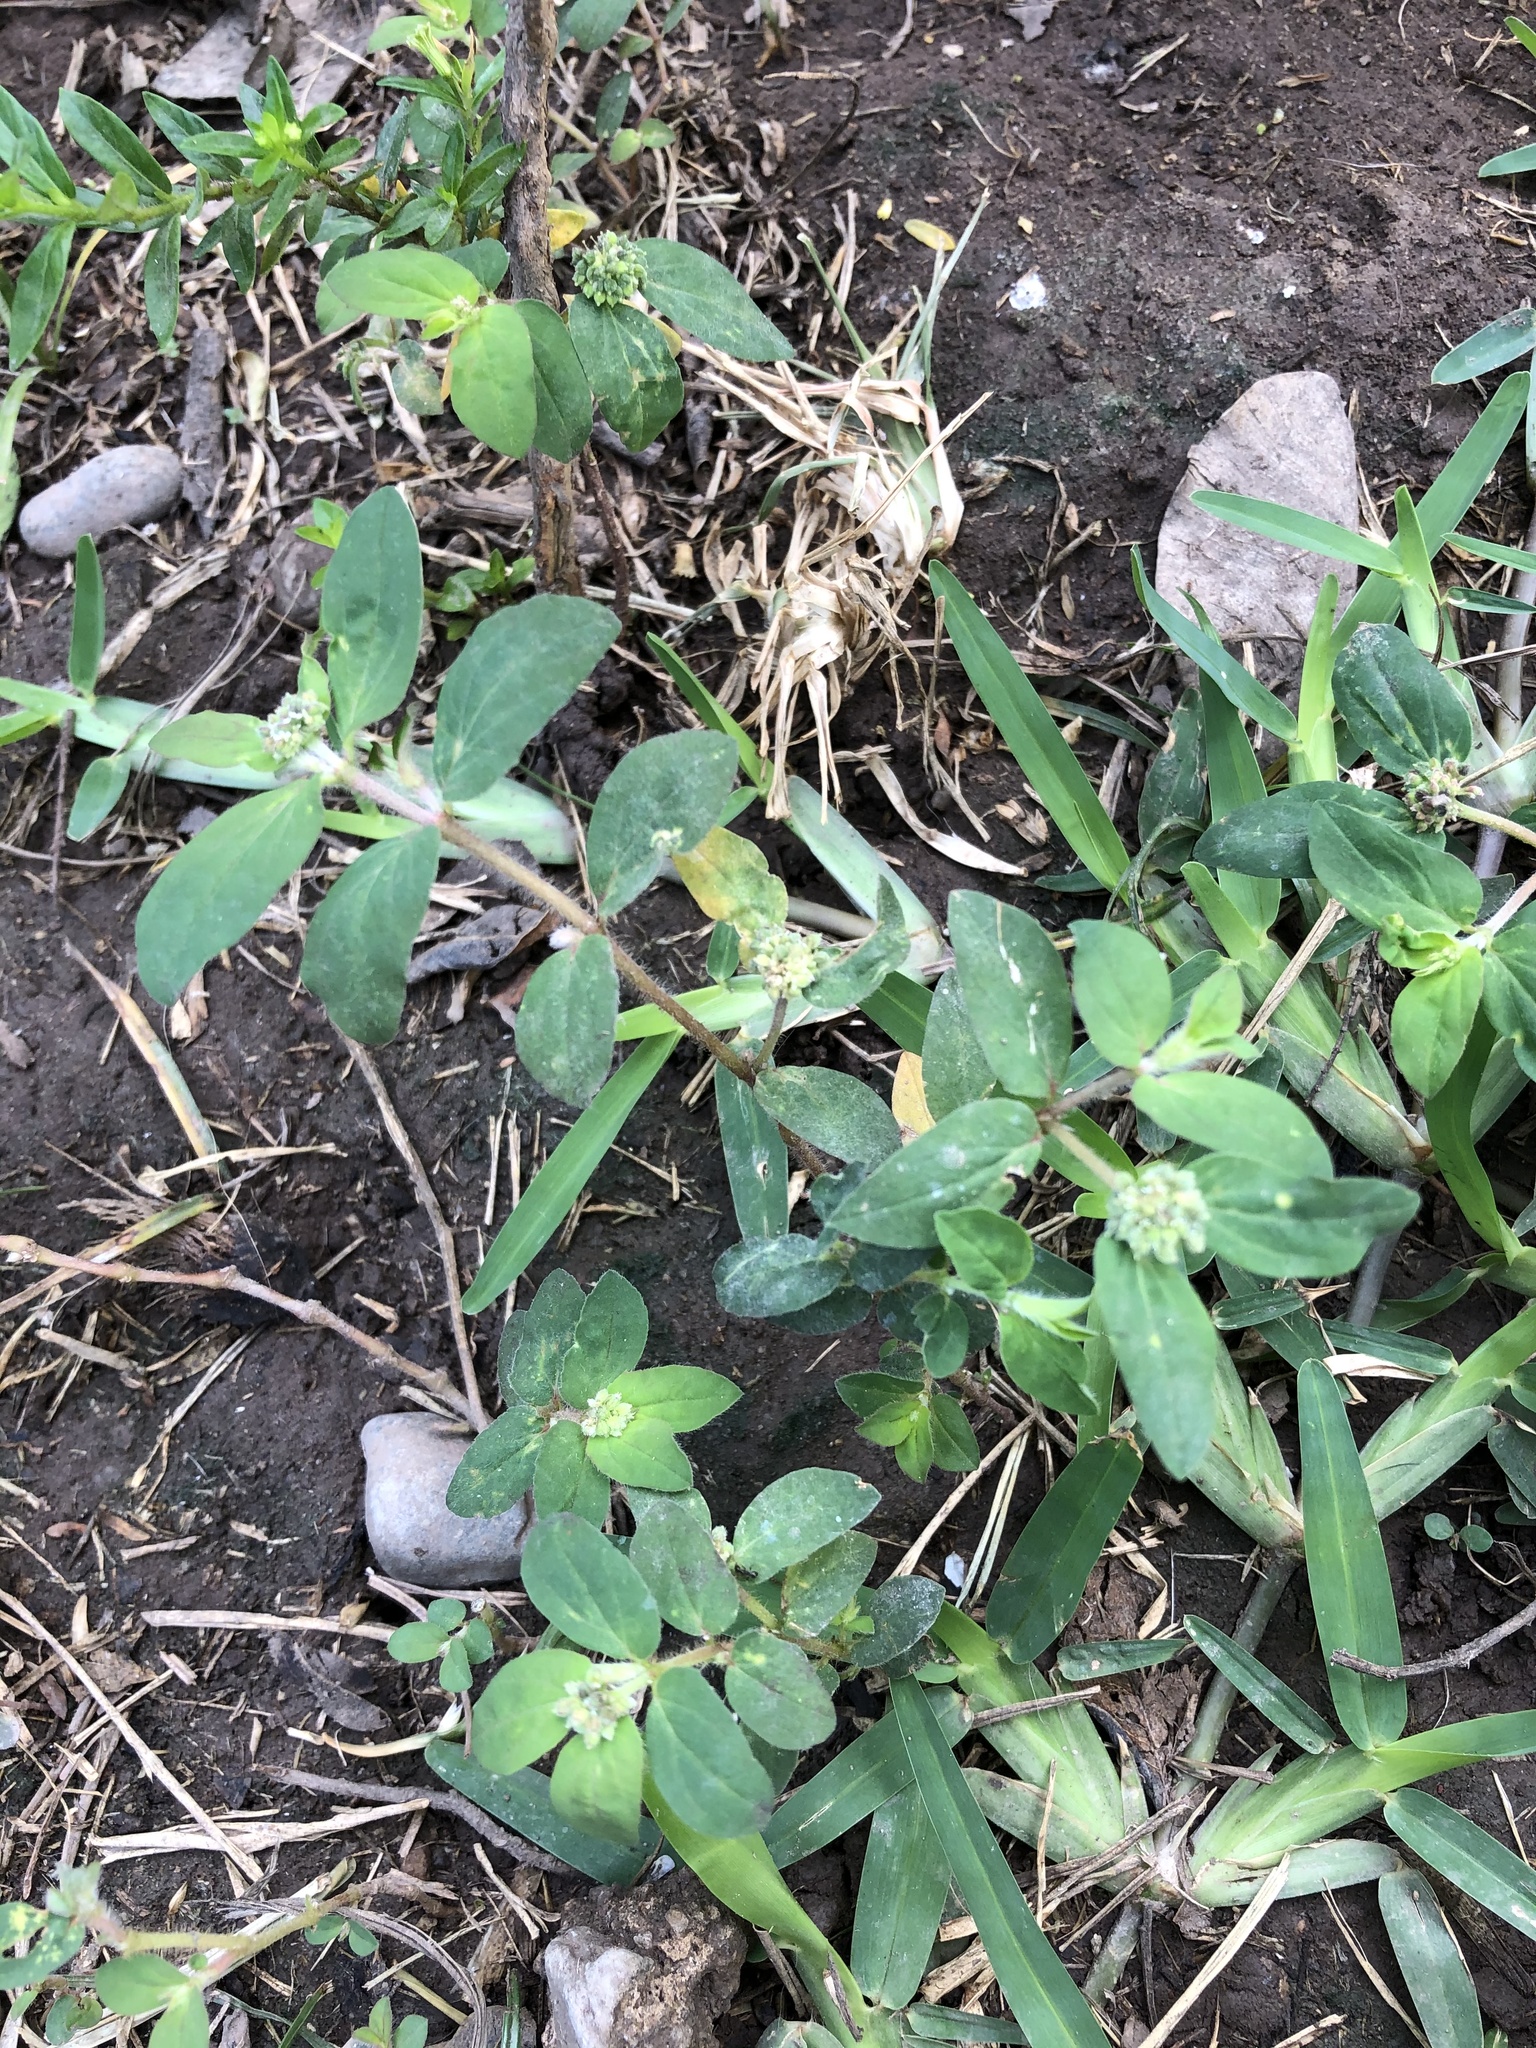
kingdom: Plantae
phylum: Tracheophyta
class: Magnoliopsida
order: Malpighiales
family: Euphorbiaceae
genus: Euphorbia
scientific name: Euphorbia ophthalmica
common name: Florida hammock sandmat
